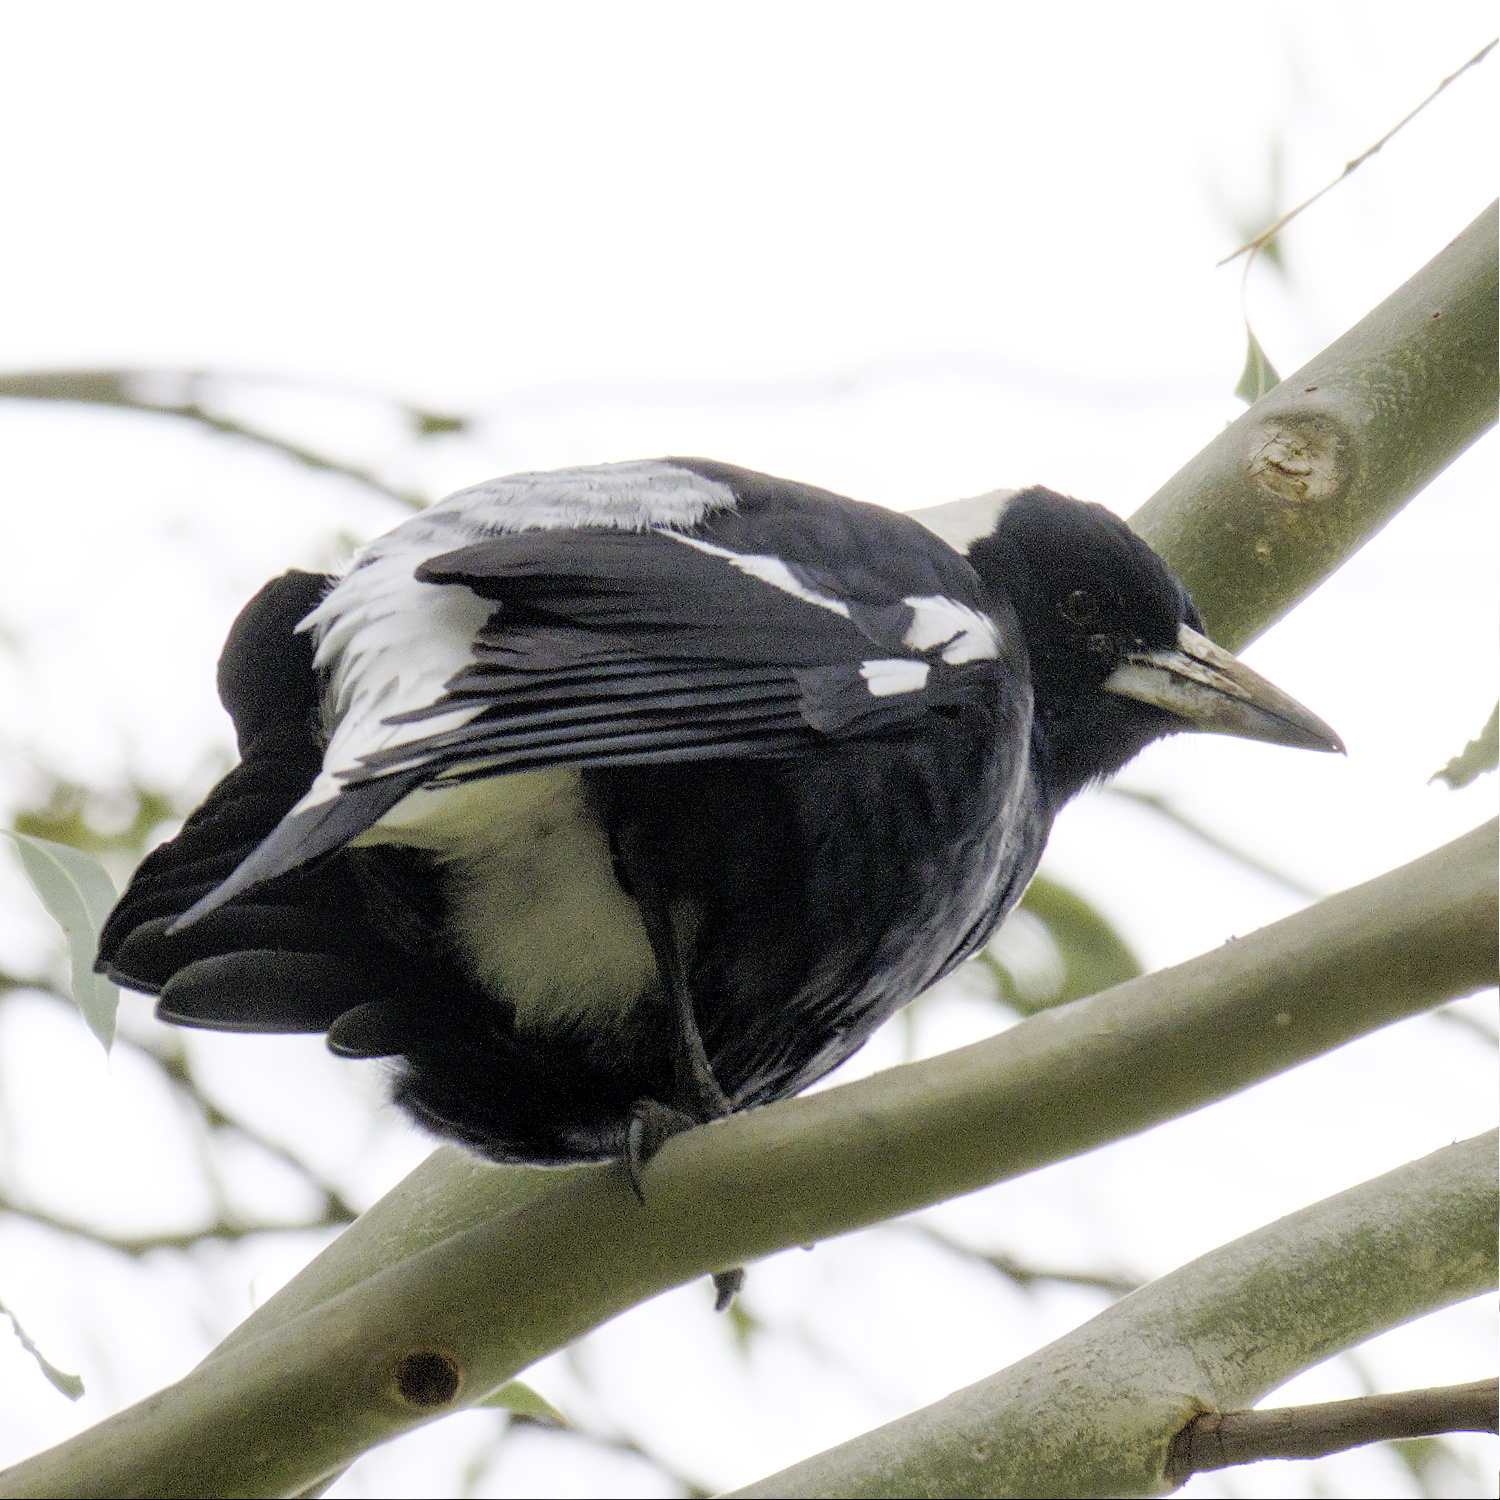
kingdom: Animalia
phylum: Chordata
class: Aves
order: Passeriformes
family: Cracticidae
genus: Gymnorhina
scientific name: Gymnorhina tibicen
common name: Australian magpie
